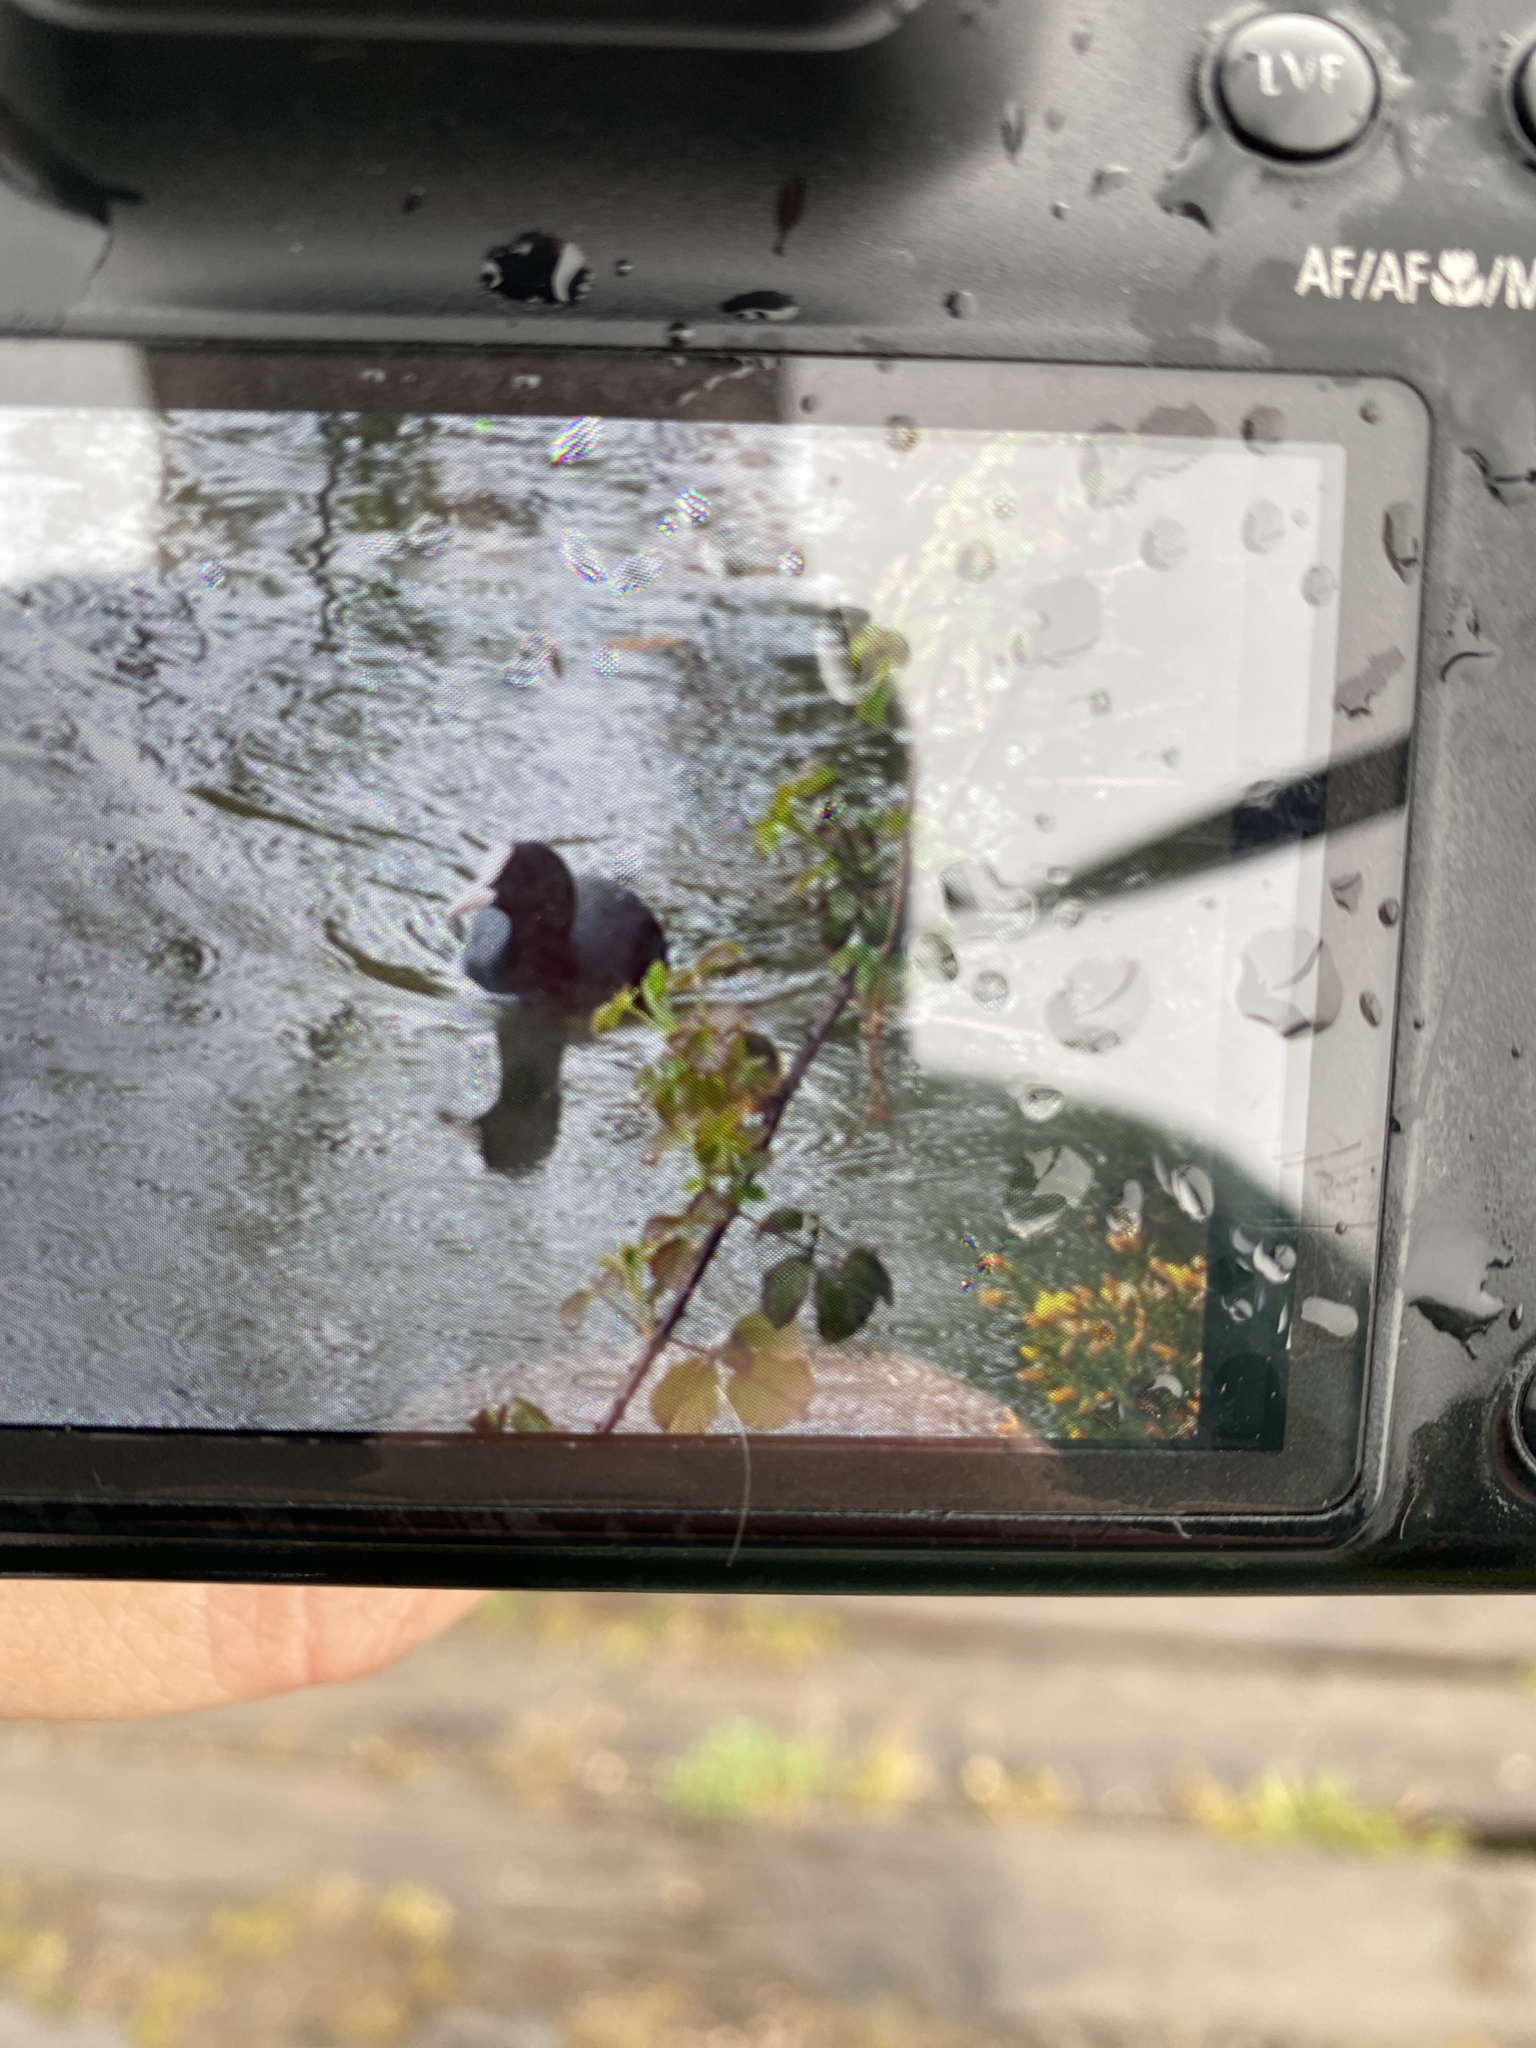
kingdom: Animalia
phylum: Chordata
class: Aves
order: Gruiformes
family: Rallidae
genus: Fulica
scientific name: Fulica atra
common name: Eurasian coot
